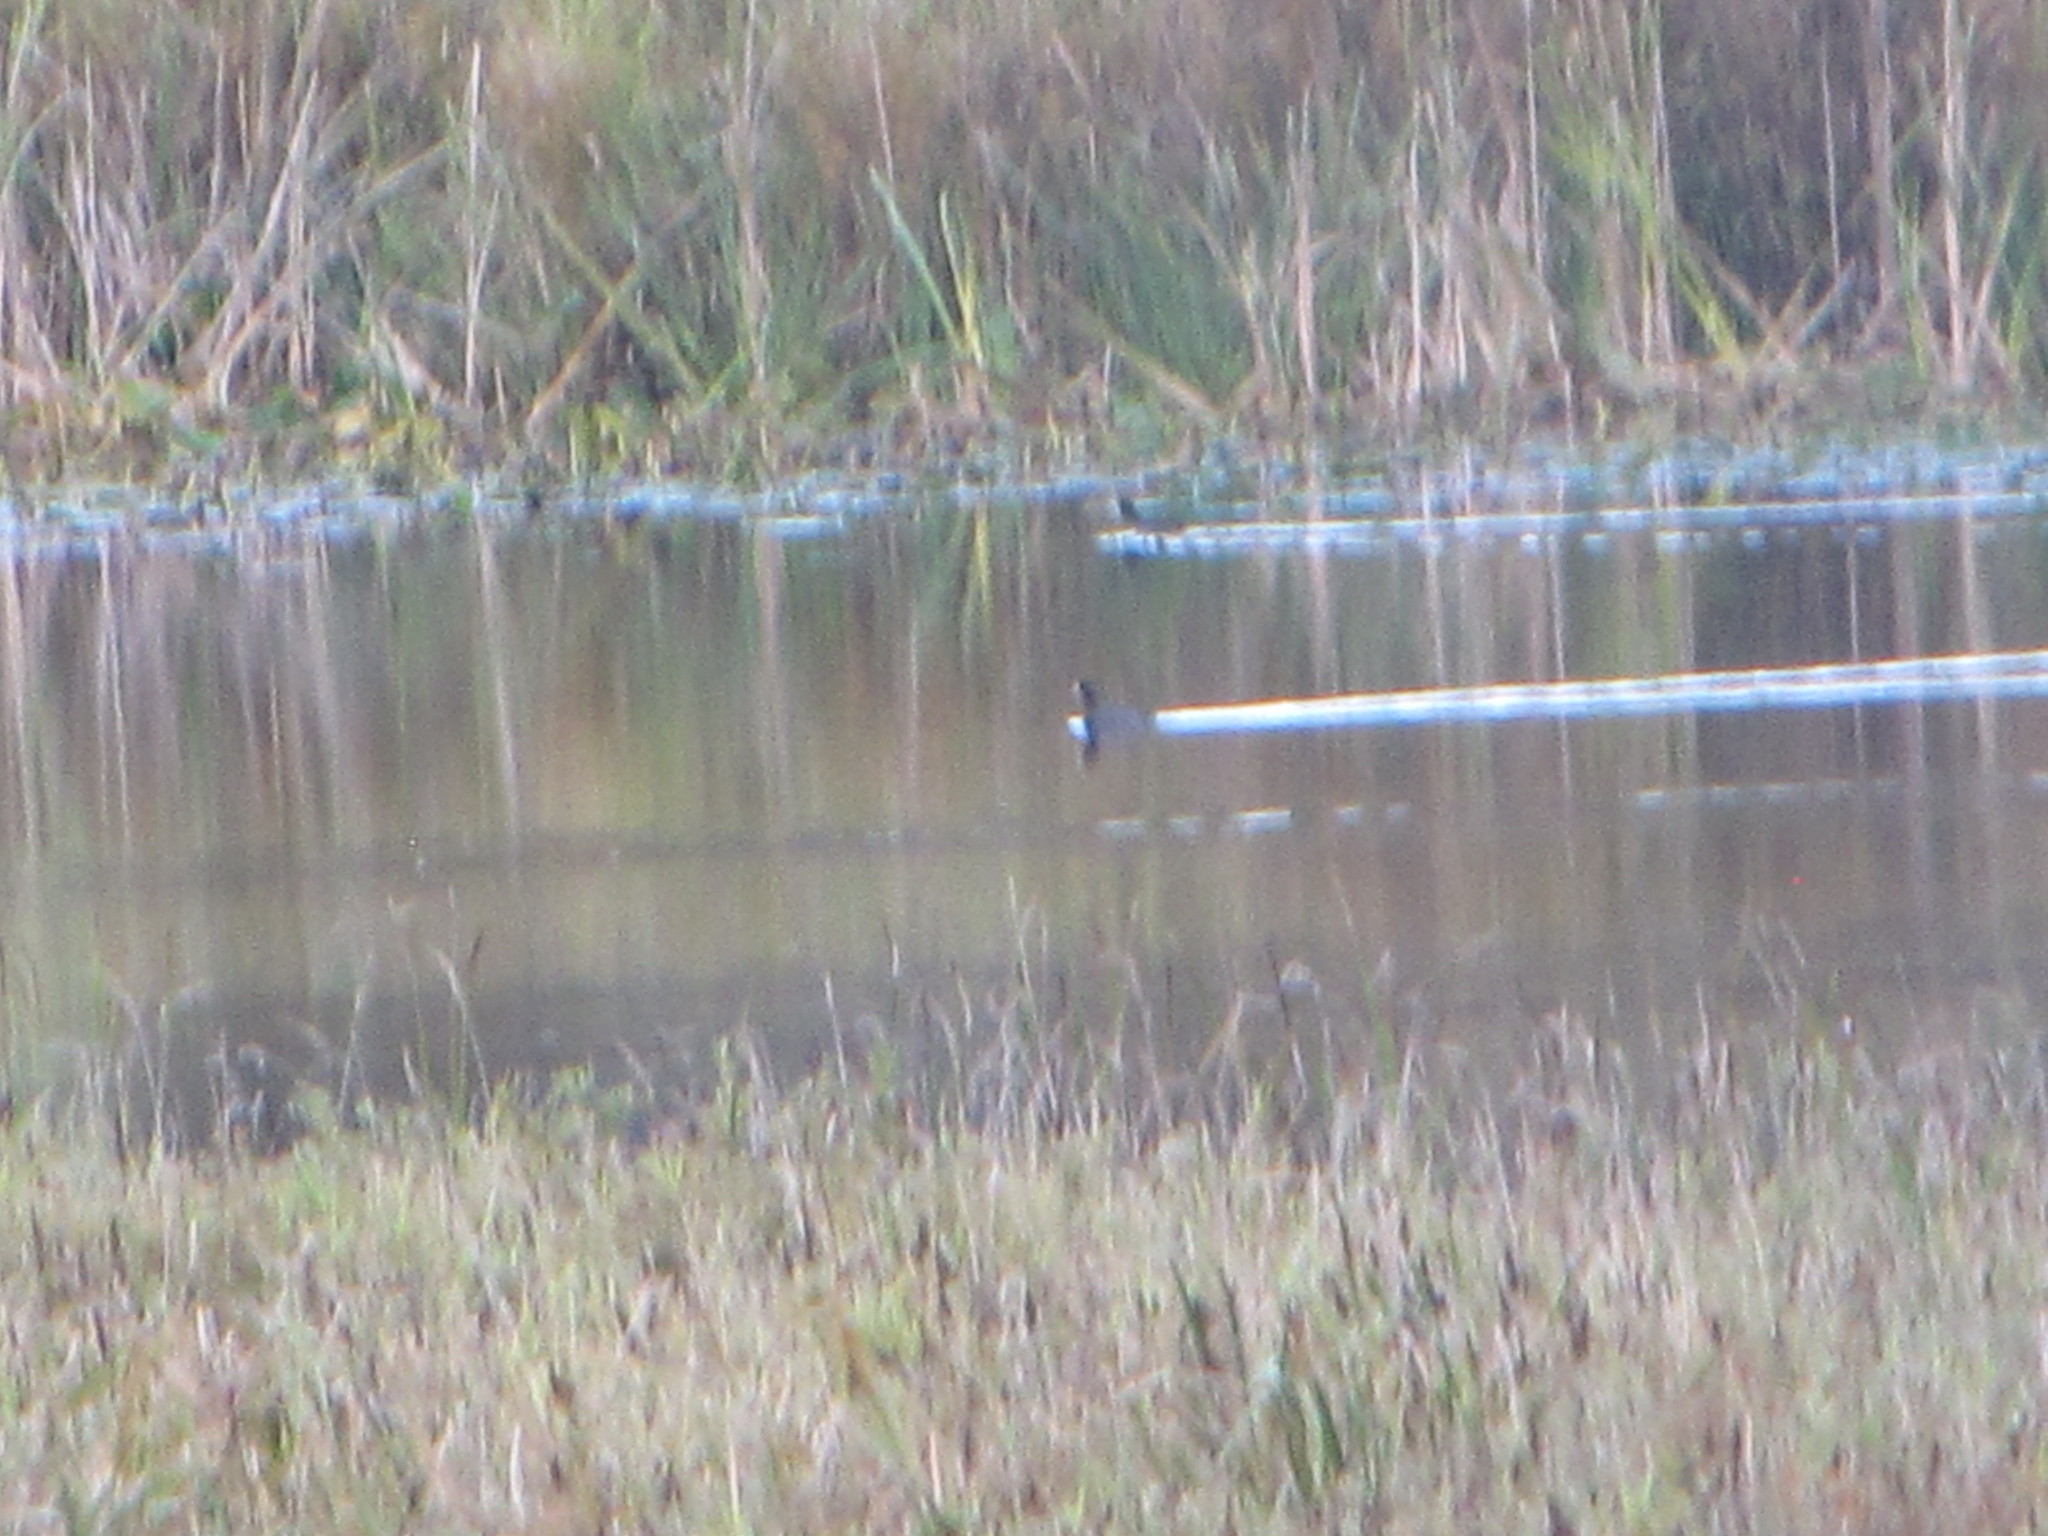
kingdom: Animalia
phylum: Chordata
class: Aves
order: Gruiformes
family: Rallidae
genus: Fulica
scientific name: Fulica americana
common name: American coot
